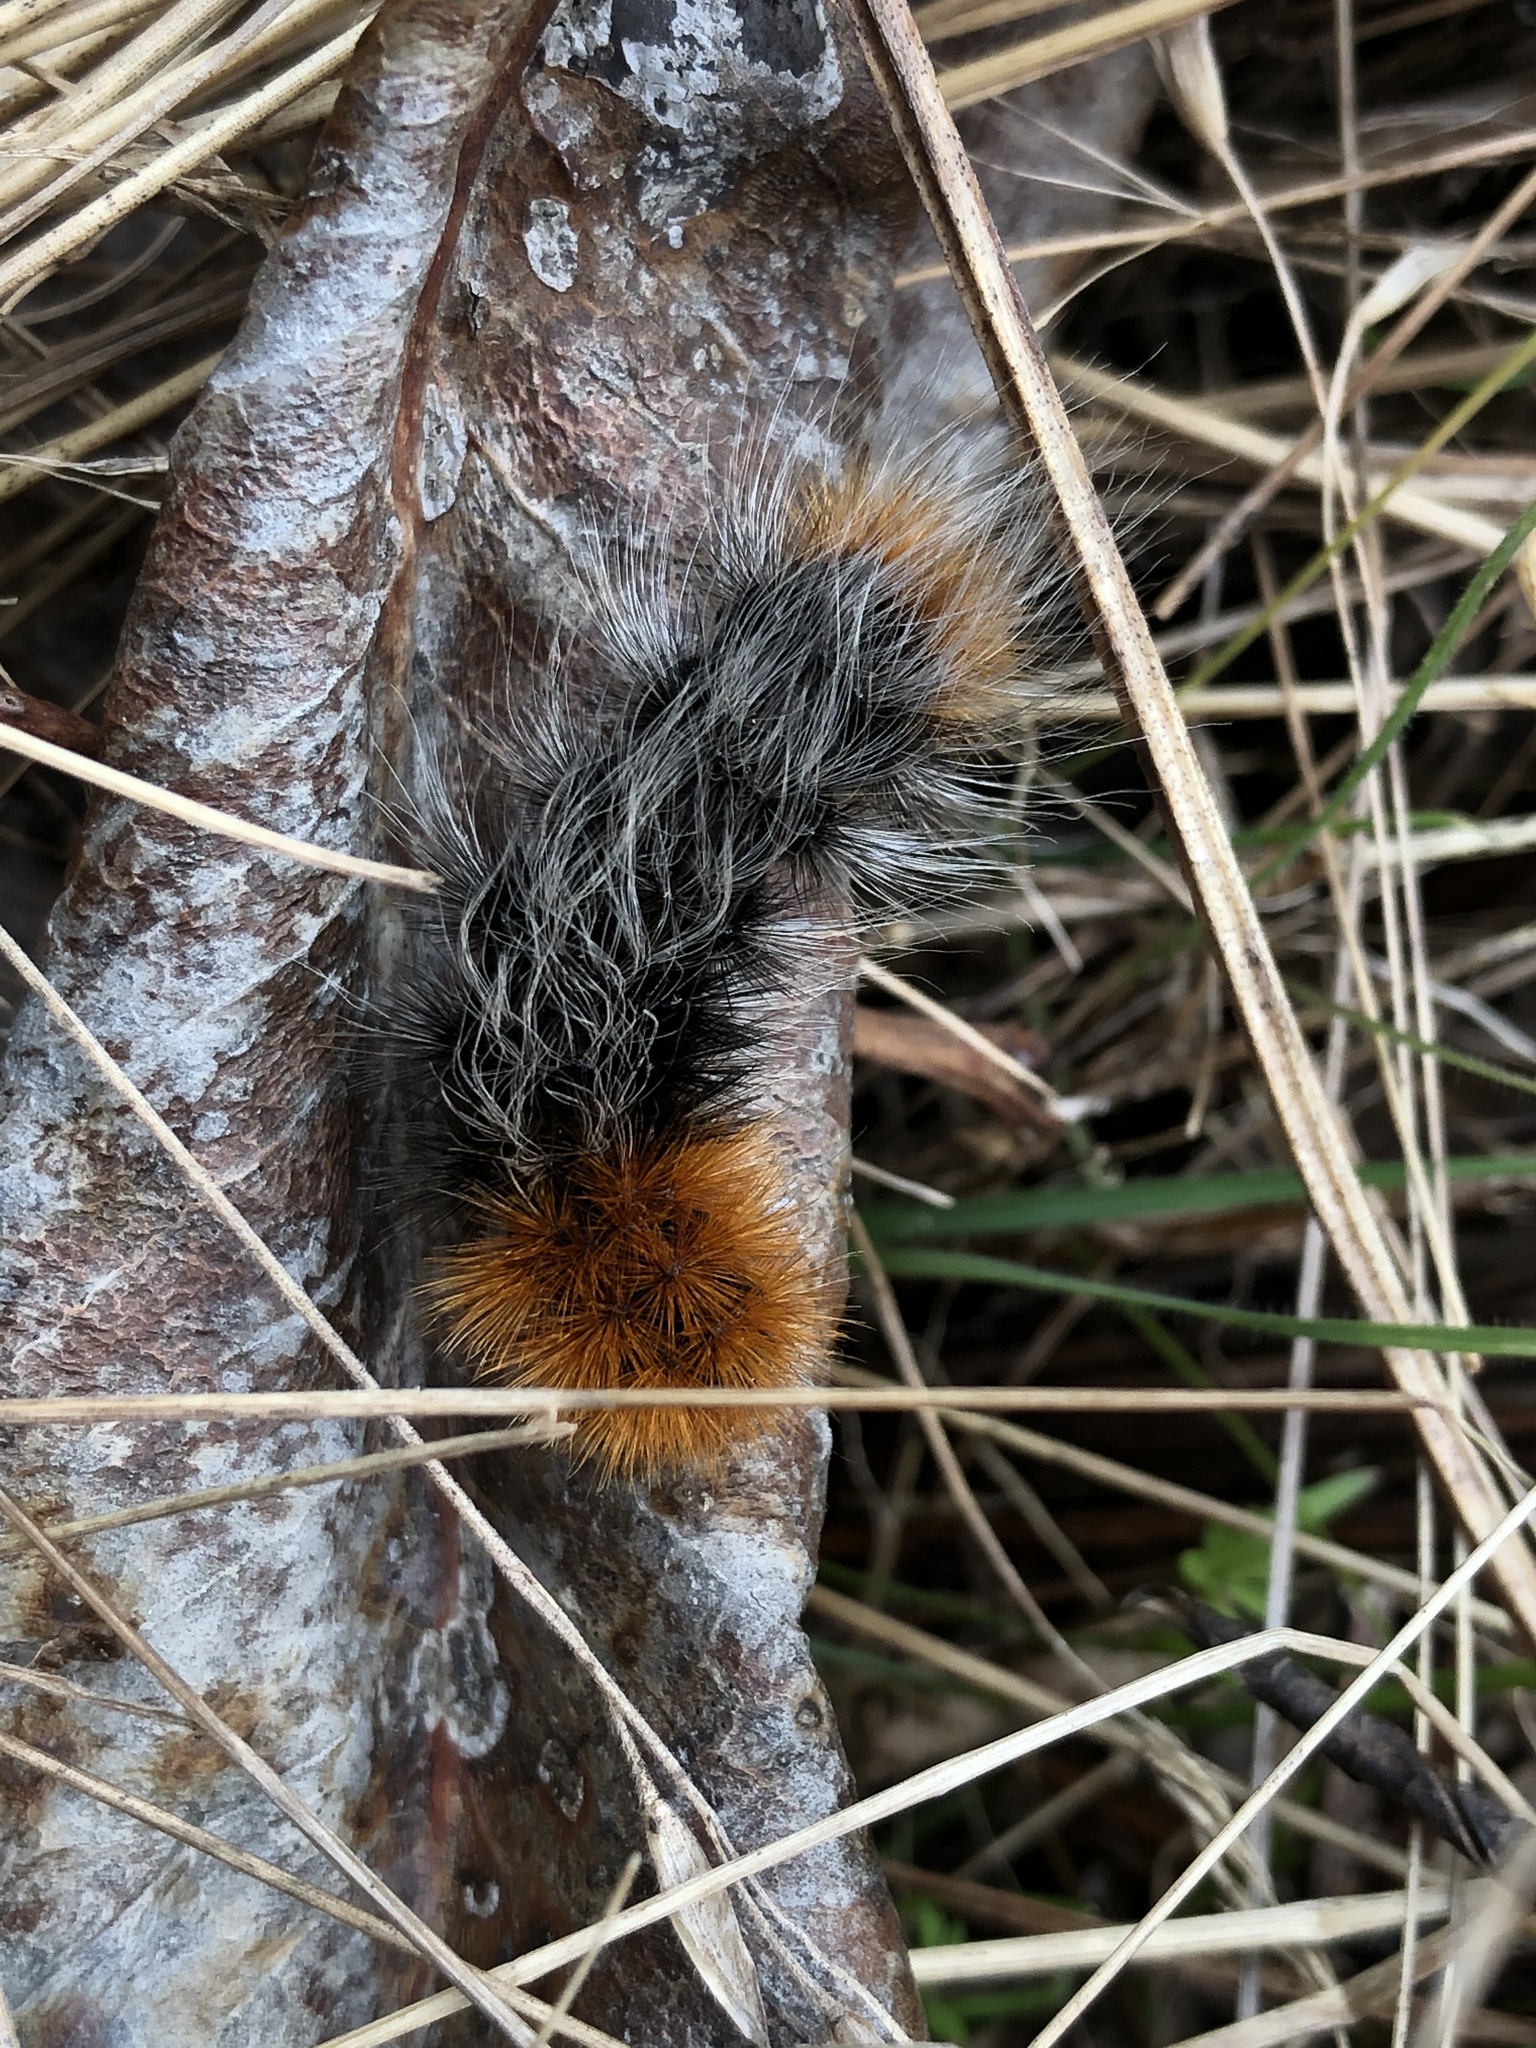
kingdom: Animalia
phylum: Arthropoda
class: Insecta
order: Lepidoptera
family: Erebidae
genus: Arctia
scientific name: Arctia tigrina
